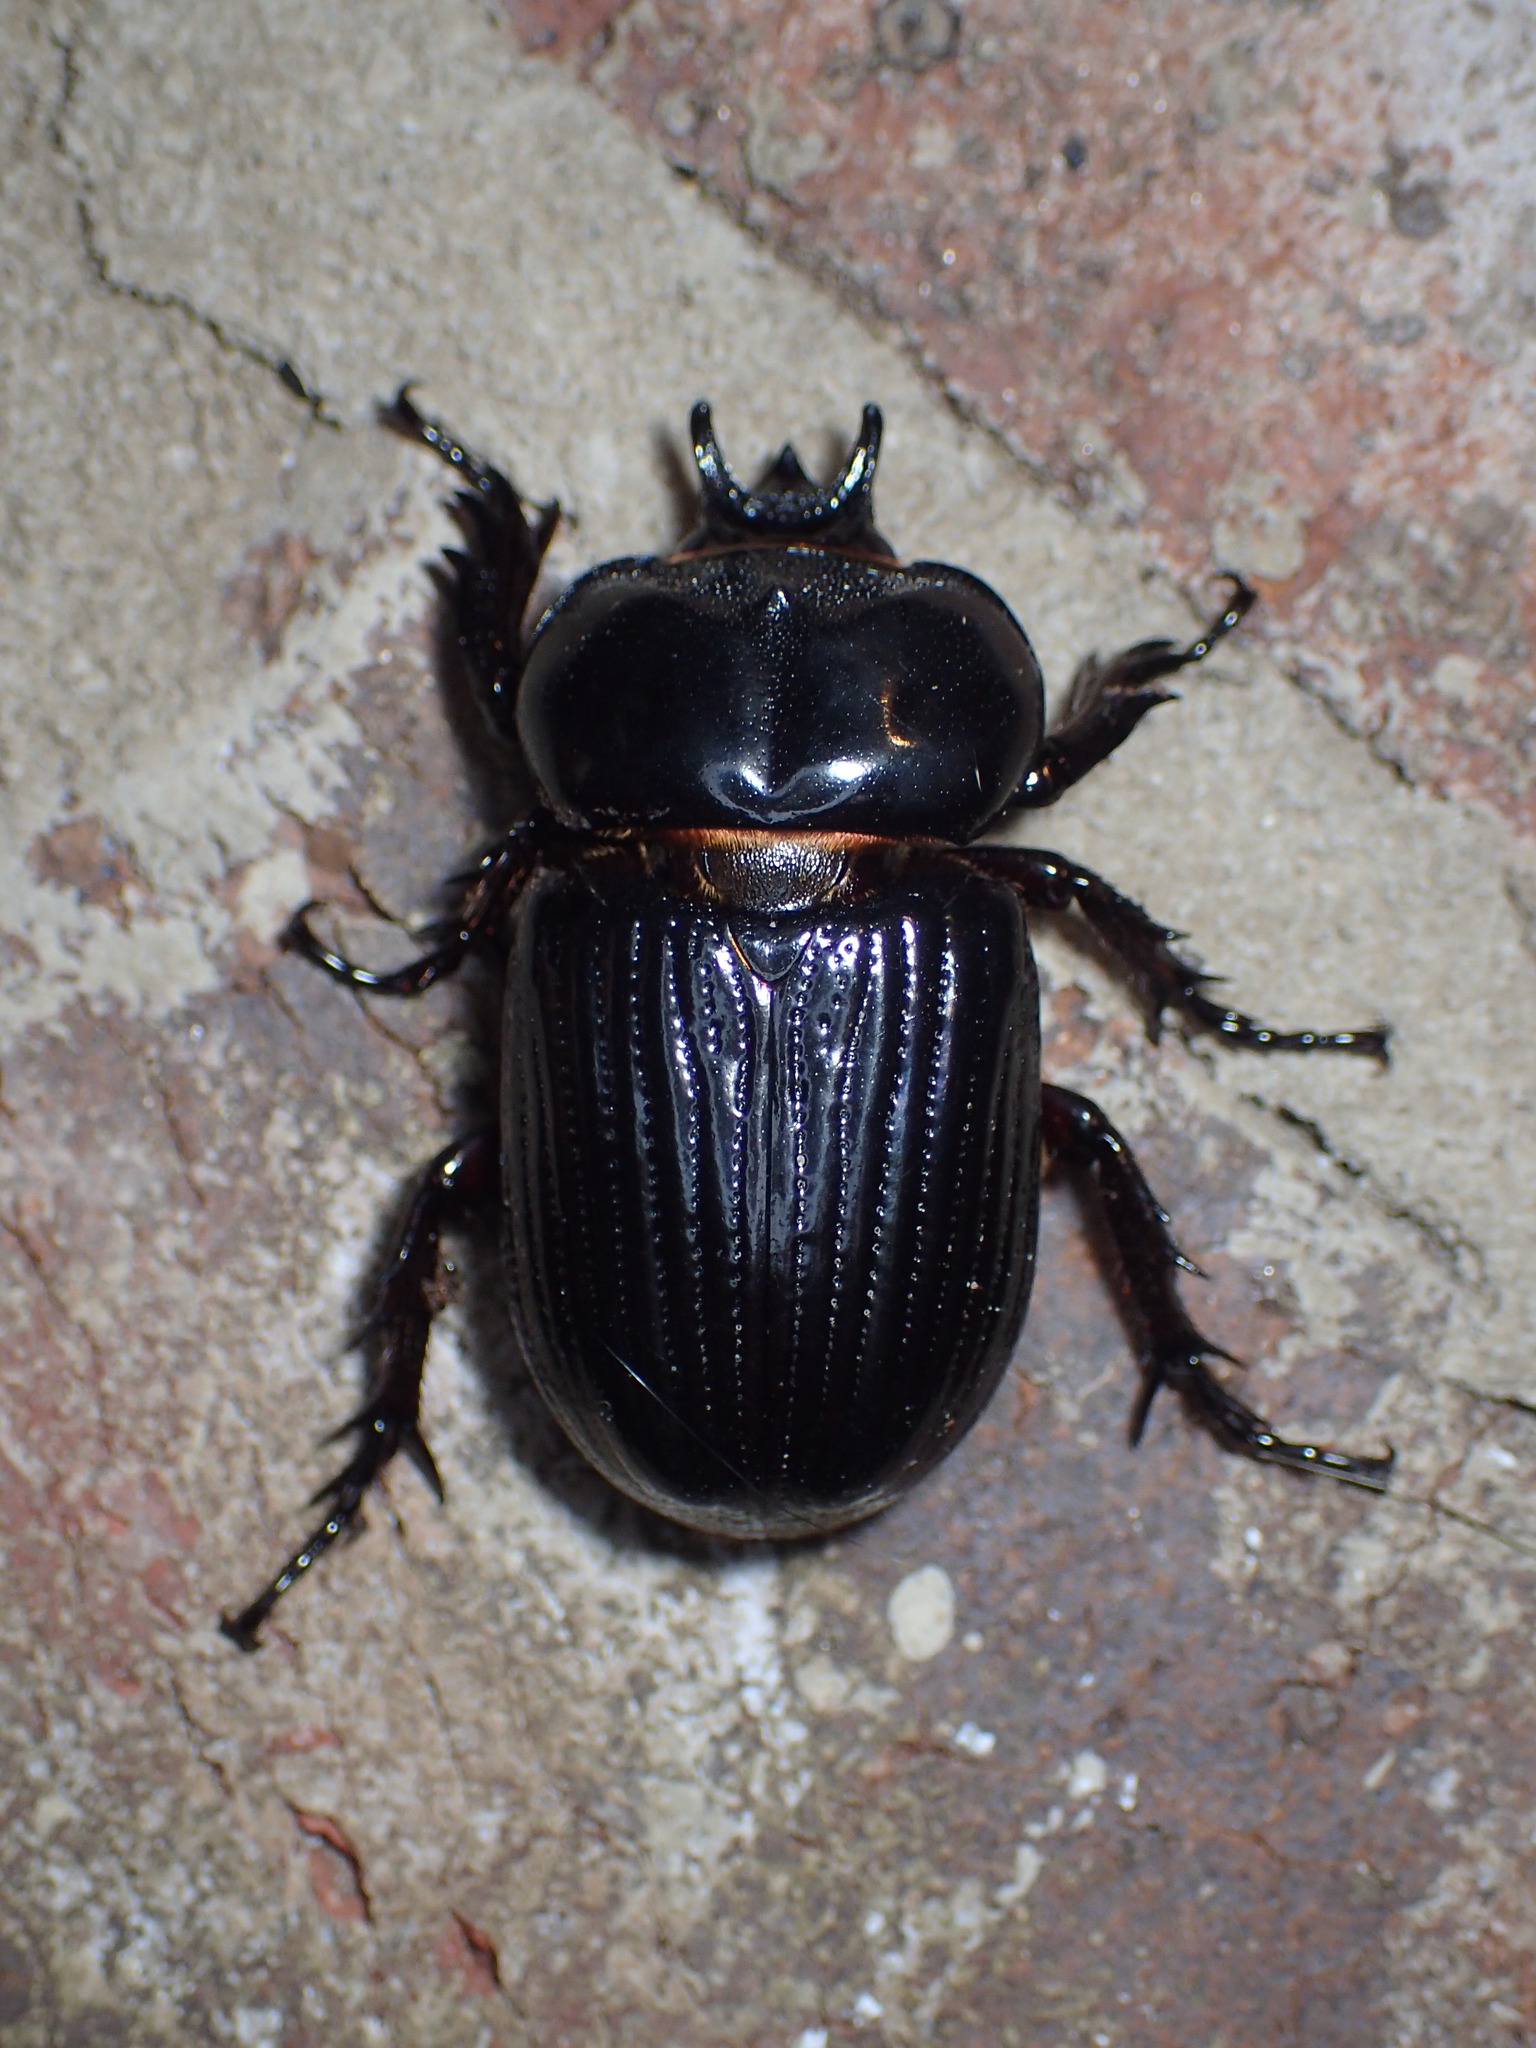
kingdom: Animalia
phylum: Arthropoda
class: Insecta
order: Coleoptera
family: Scarabaeidae
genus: Phileurus
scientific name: Phileurus truncatus
